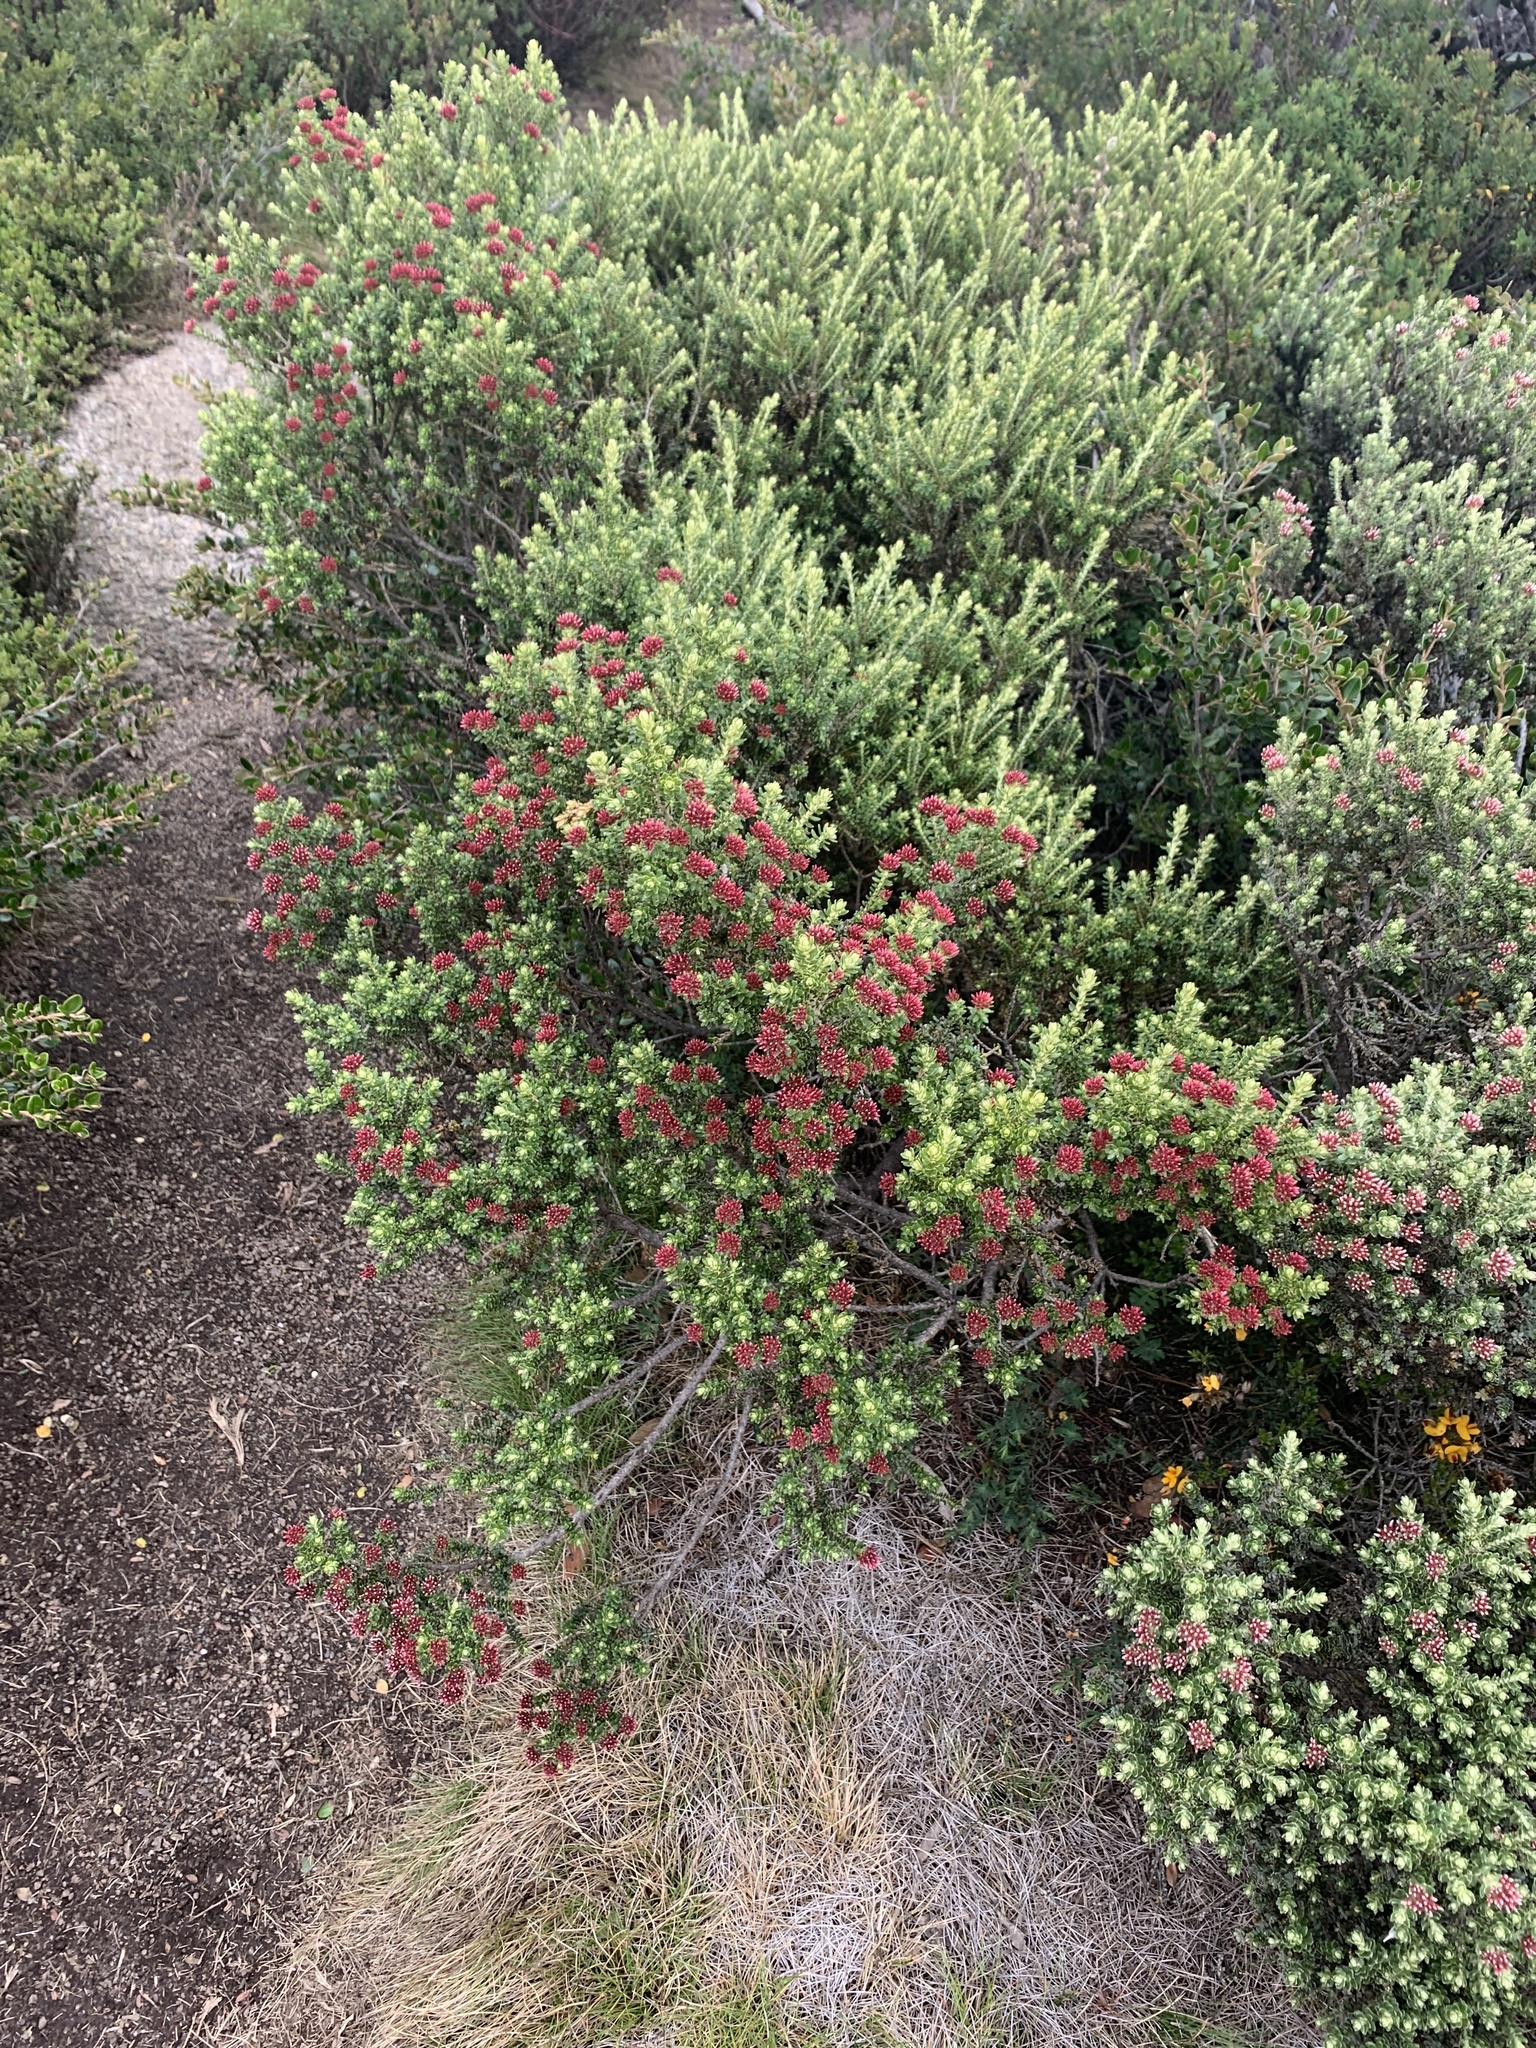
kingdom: Plantae
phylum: Tracheophyta
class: Magnoliopsida
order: Asterales
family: Asteraceae
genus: Ozothamnus
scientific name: Ozothamnus alpinus
